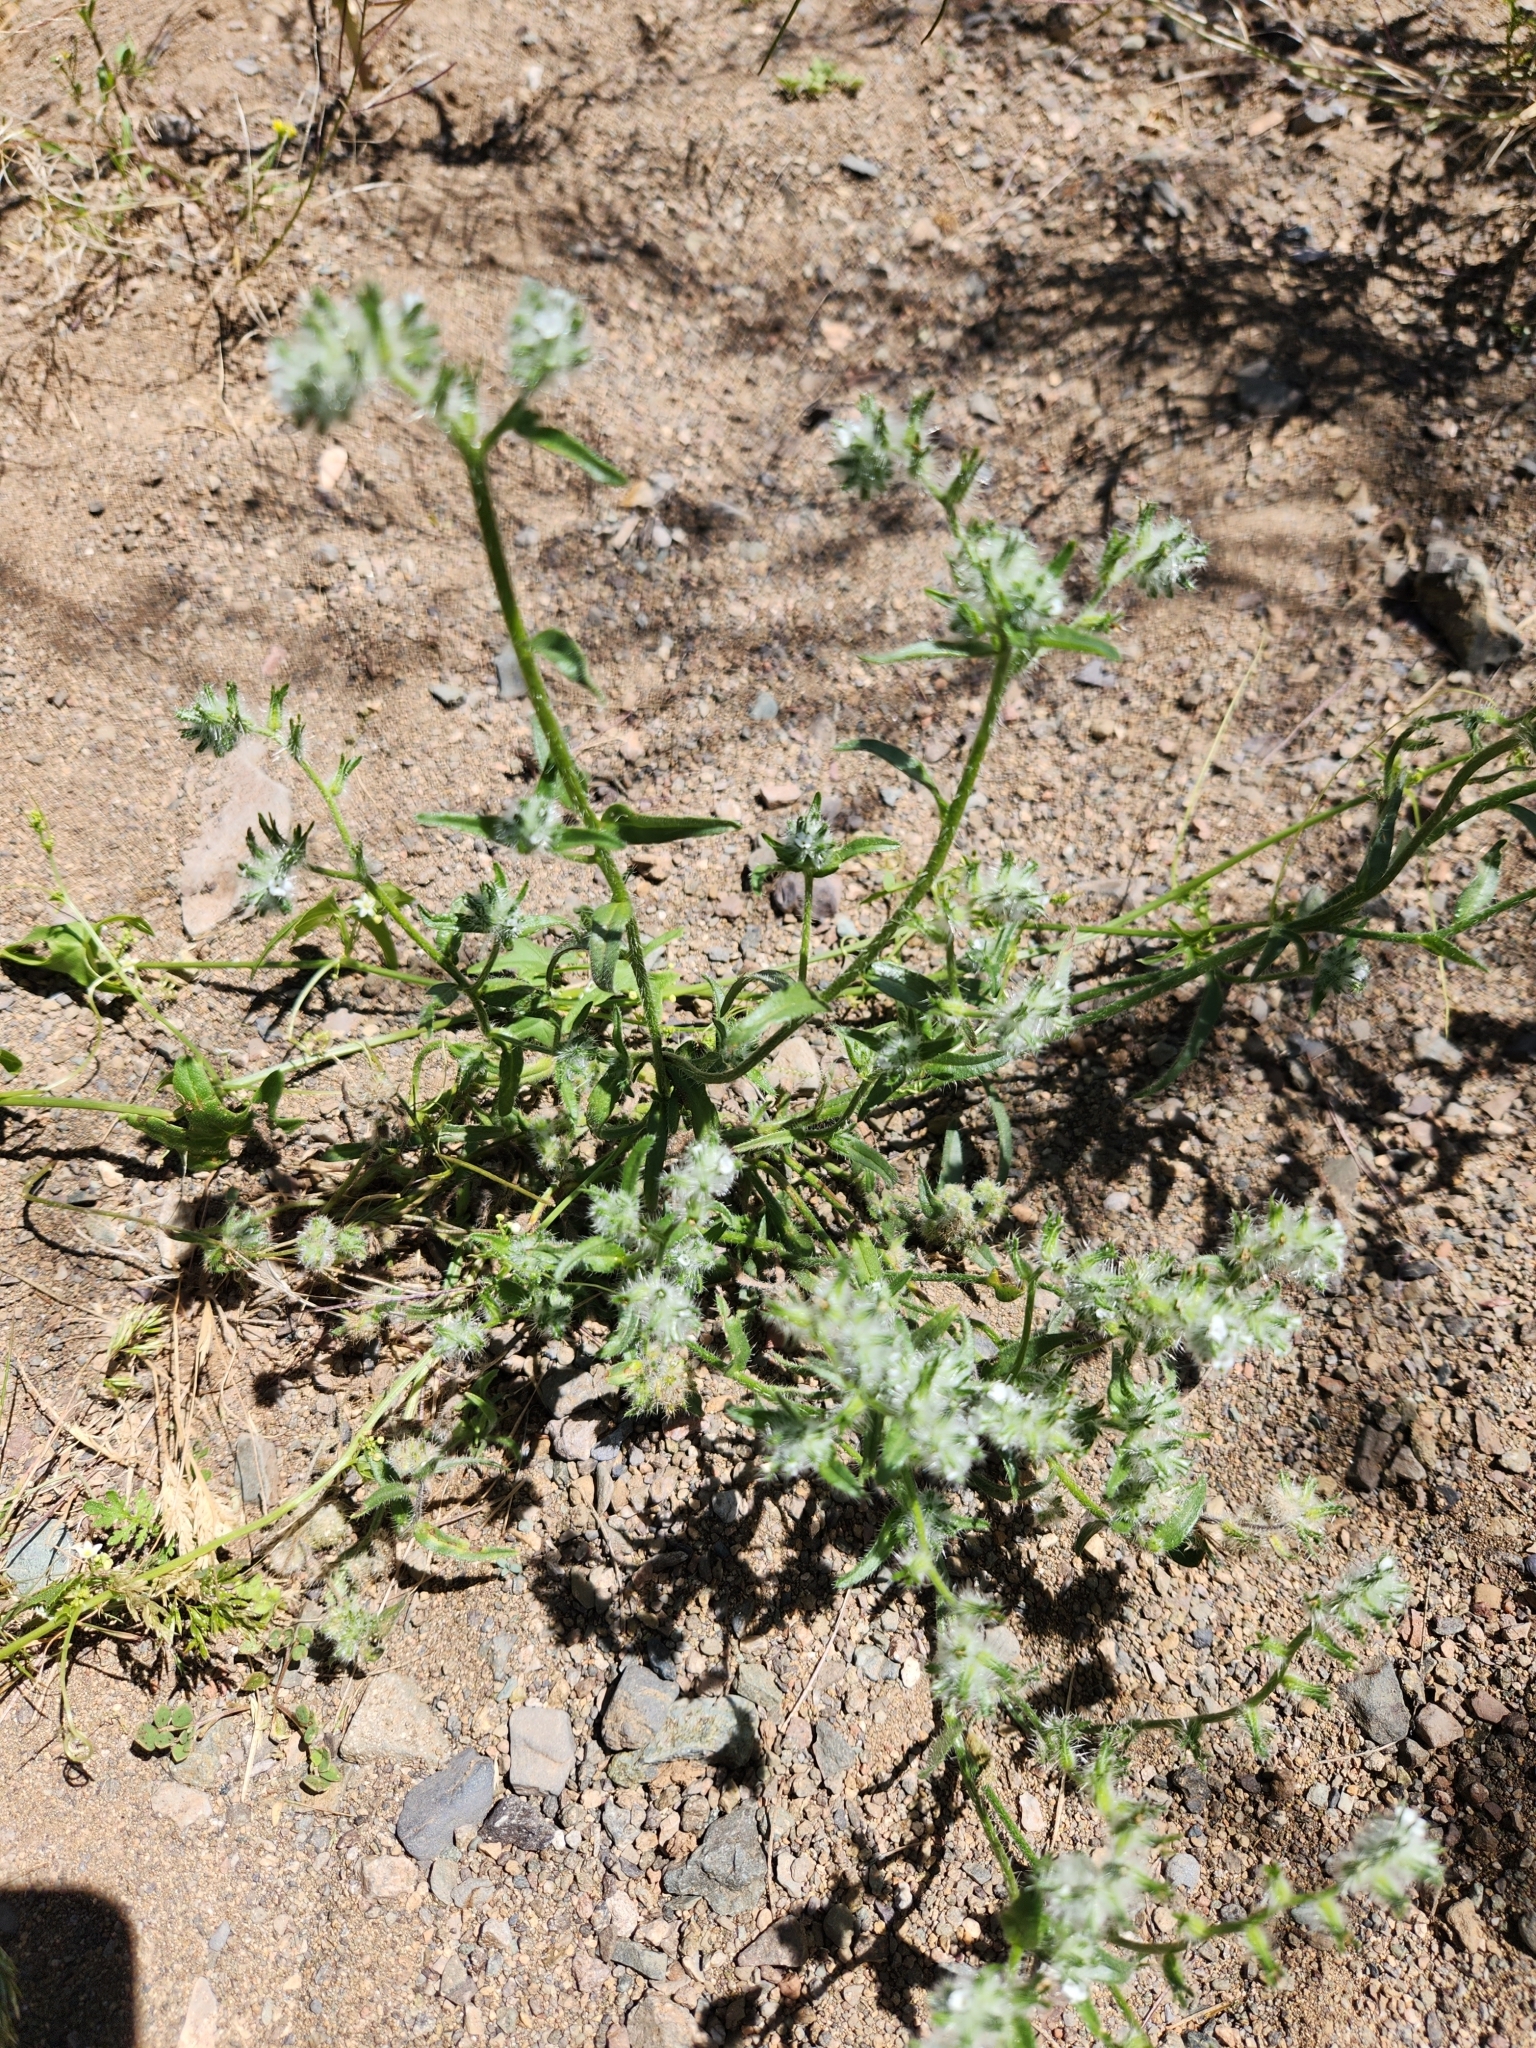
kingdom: Plantae
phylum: Tracheophyta
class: Magnoliopsida
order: Boraginales
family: Boraginaceae
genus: Cryptantha
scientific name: Cryptantha intermedia
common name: Clearwater cryptantha
